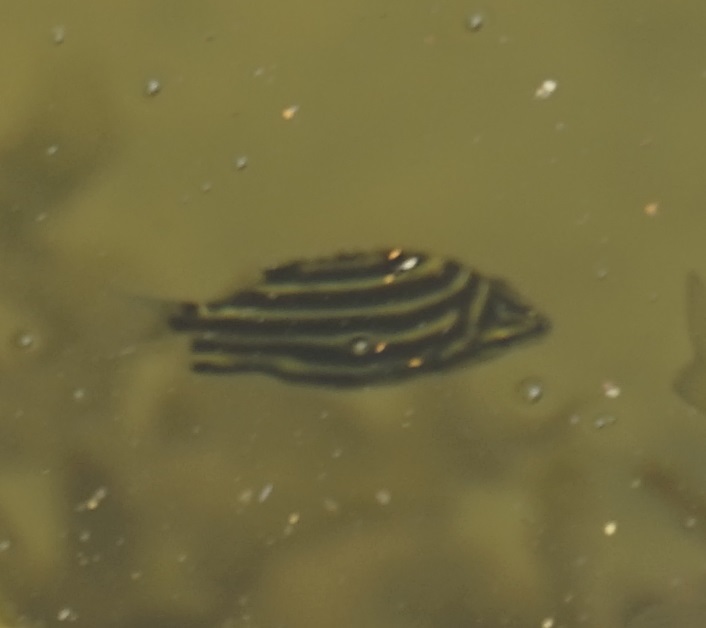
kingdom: Animalia
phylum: Chordata
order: Perciformes
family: Kyphosidae
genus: Microcanthus
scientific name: Microcanthus joyceae
